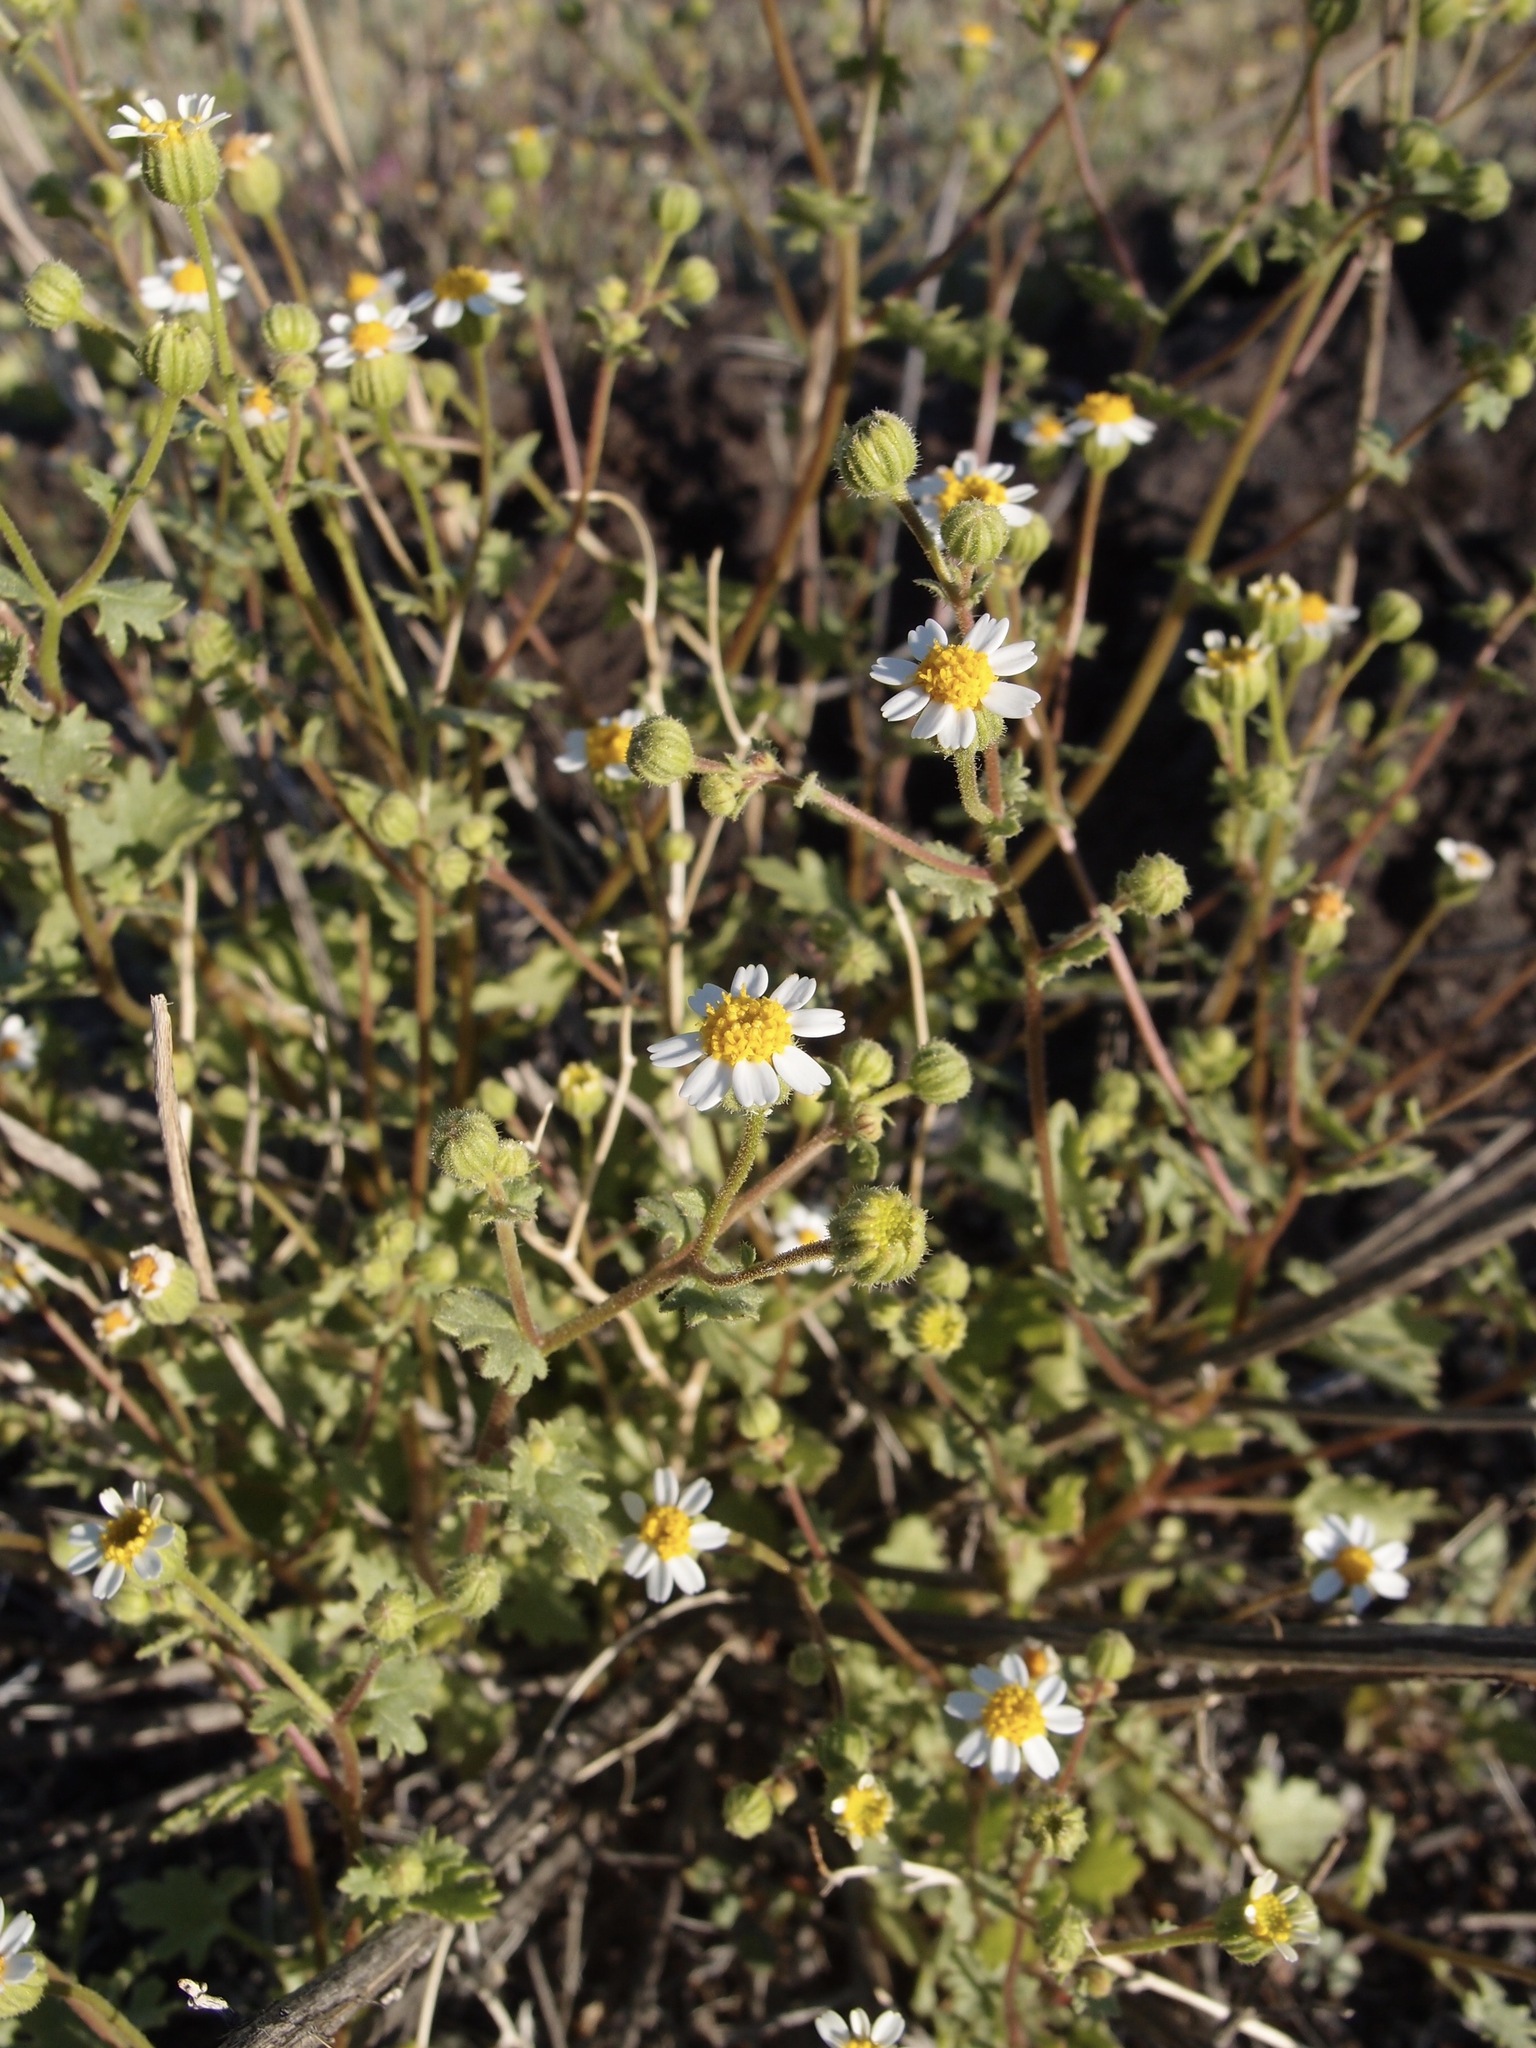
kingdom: Plantae
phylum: Tracheophyta
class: Magnoliopsida
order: Asterales
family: Asteraceae
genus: Laphamia
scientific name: Laphamia emoryi
